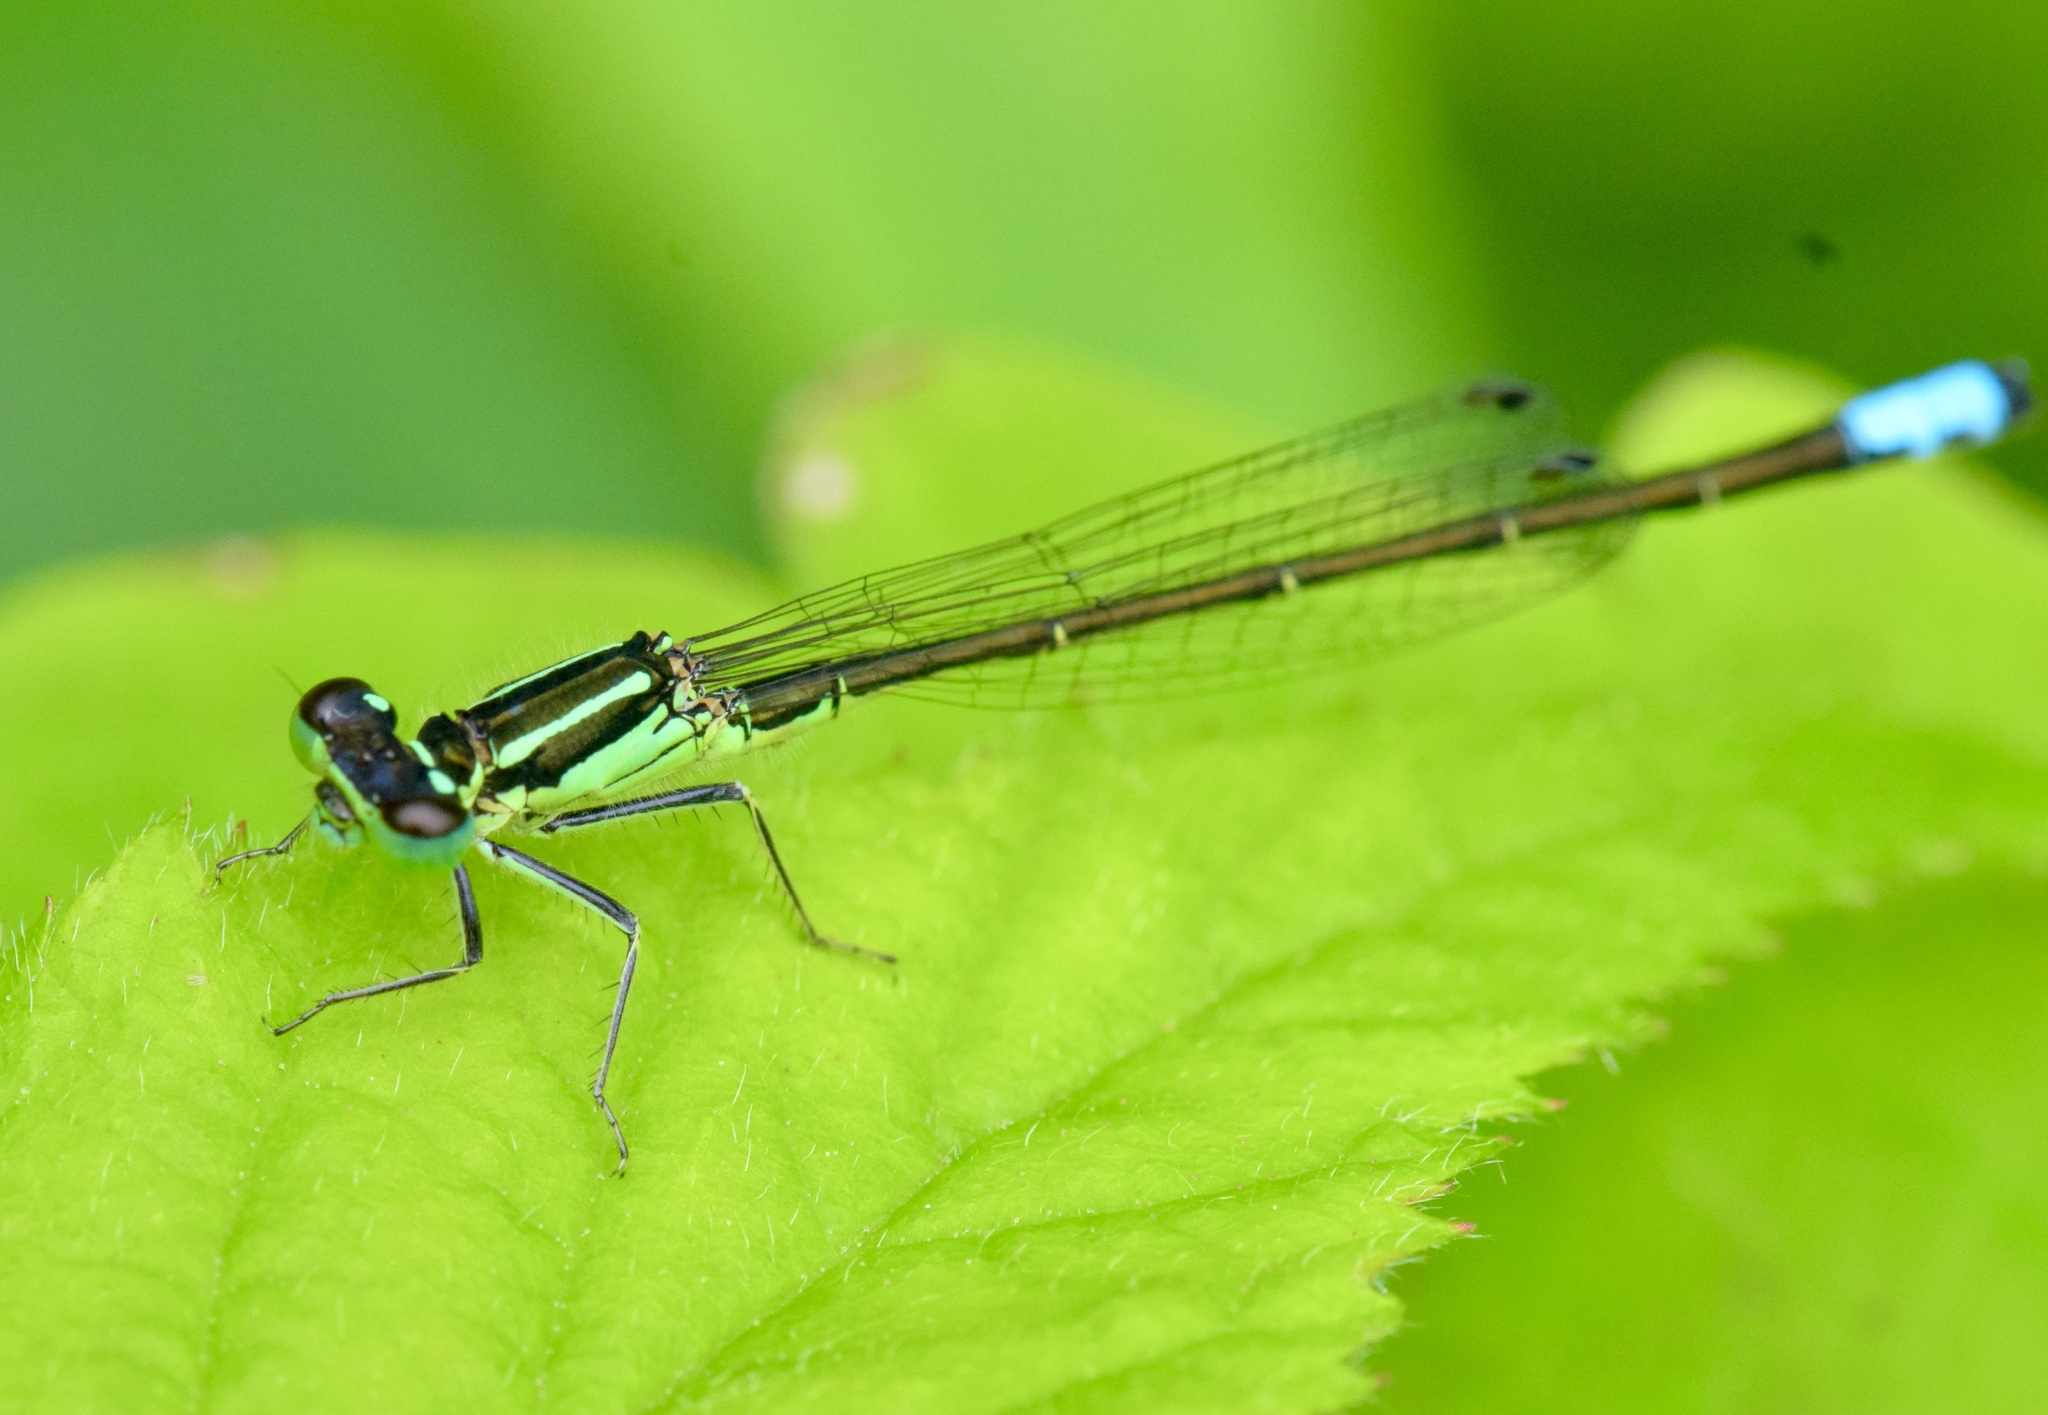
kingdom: Animalia
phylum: Arthropoda
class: Insecta
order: Odonata
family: Coenagrionidae
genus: Ischnura
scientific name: Ischnura verticalis
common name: Eastern forktail
